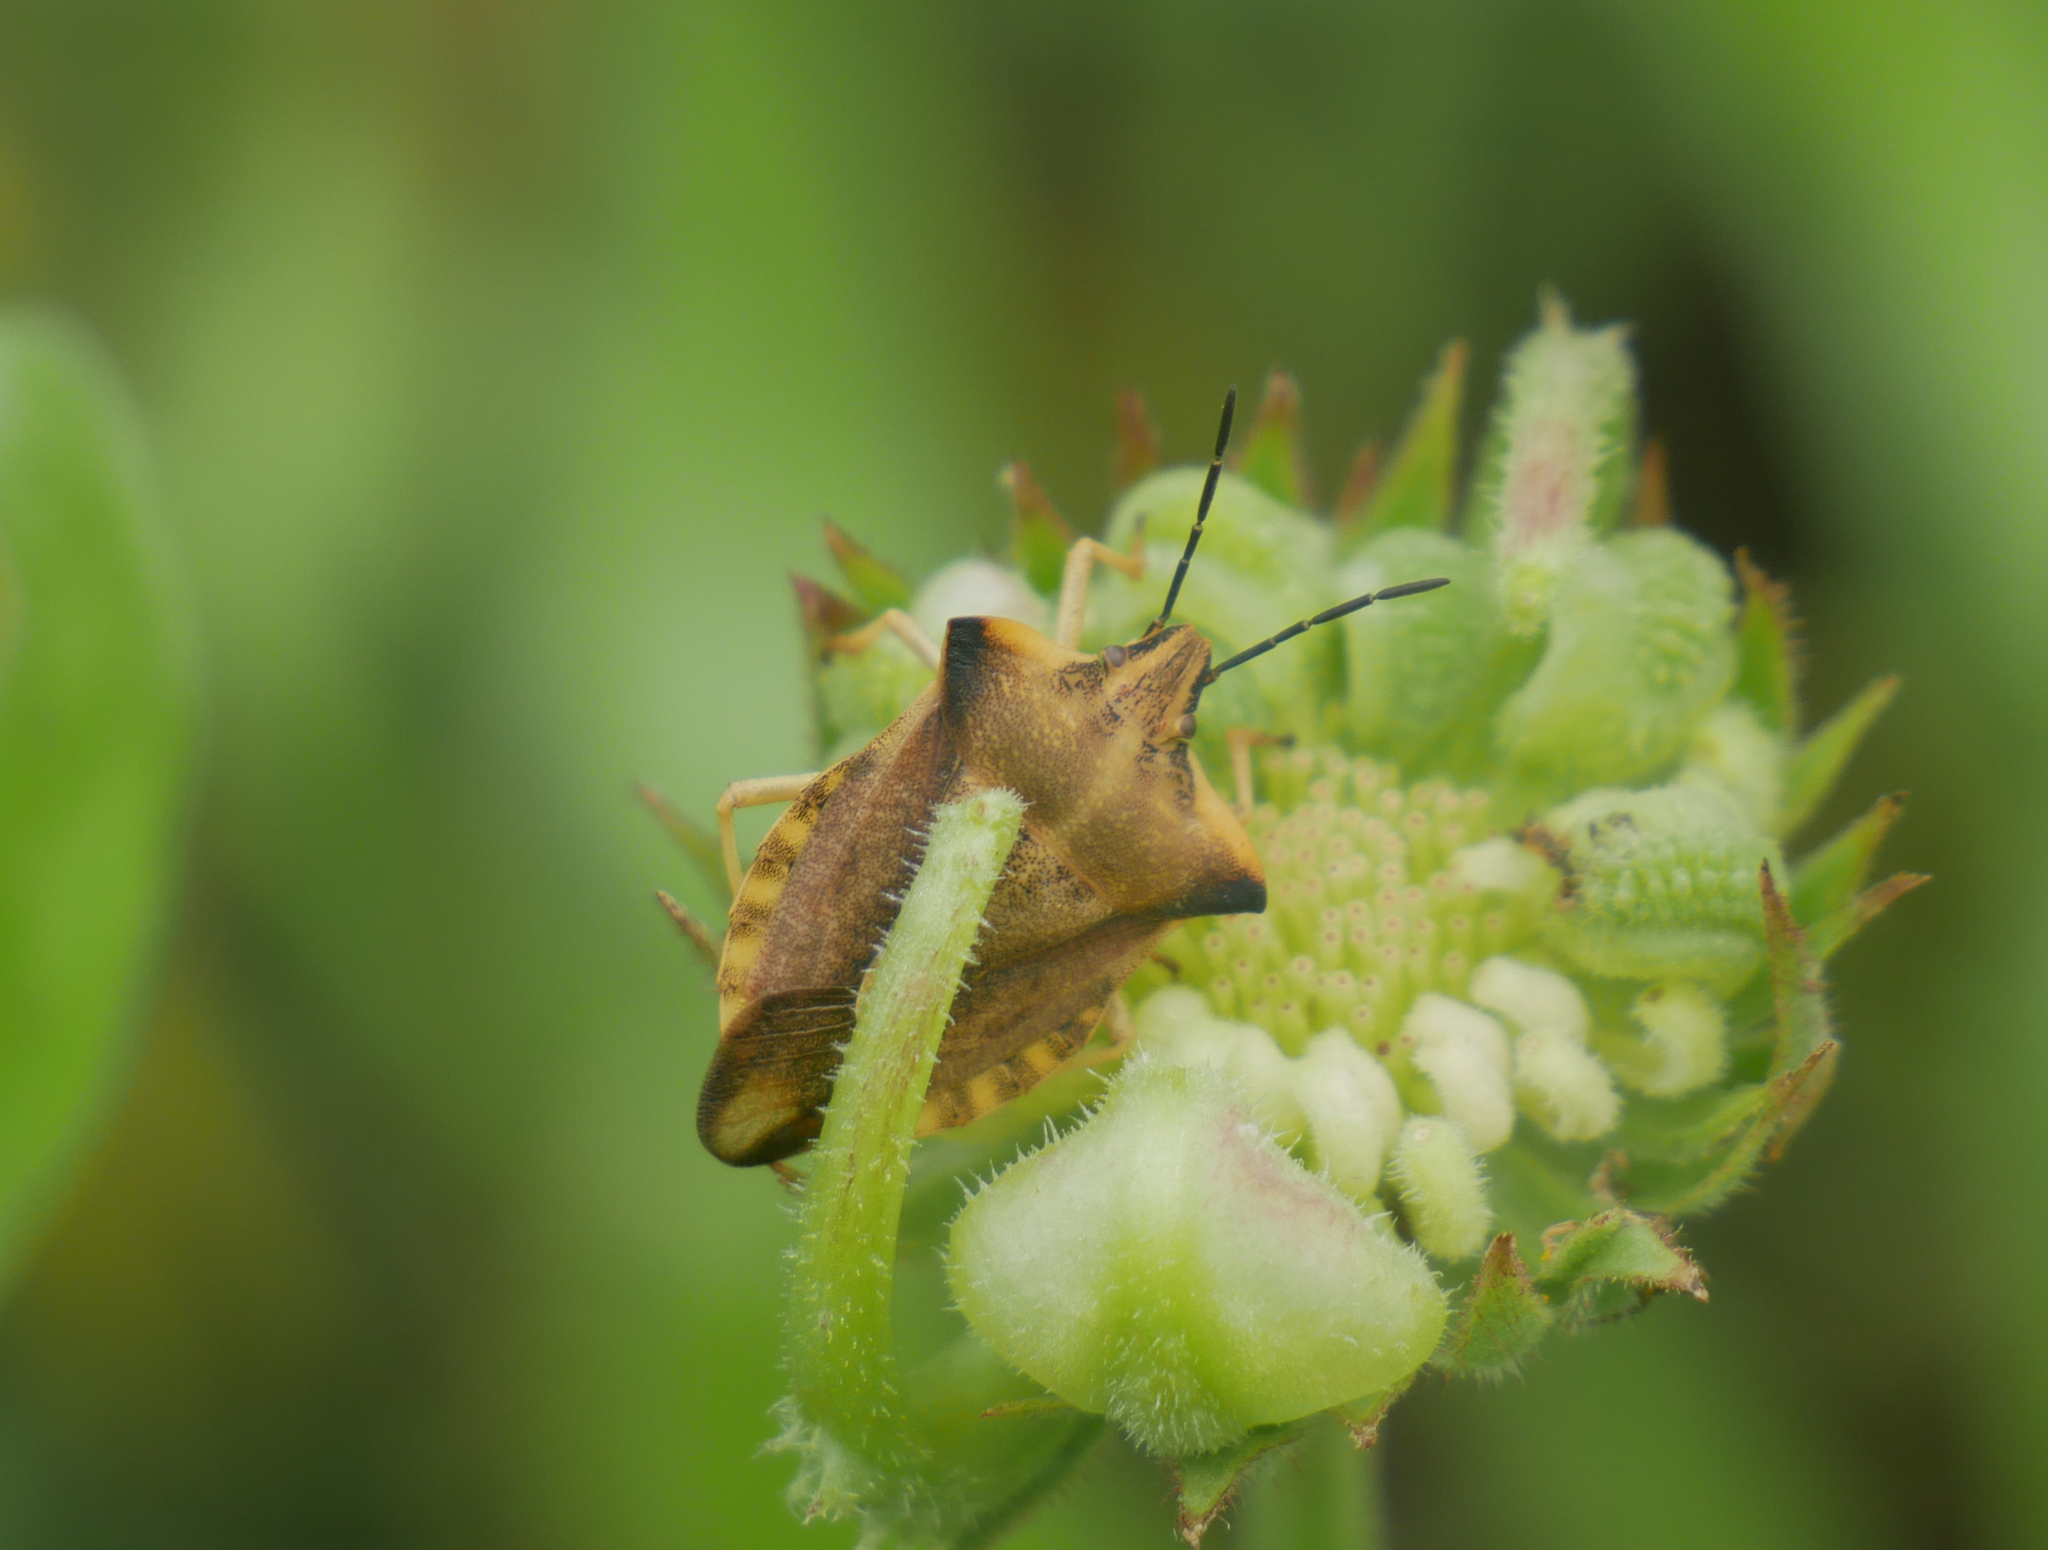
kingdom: Animalia
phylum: Arthropoda
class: Insecta
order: Hemiptera
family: Pentatomidae
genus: Carpocoris
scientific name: Carpocoris fuscispinus
